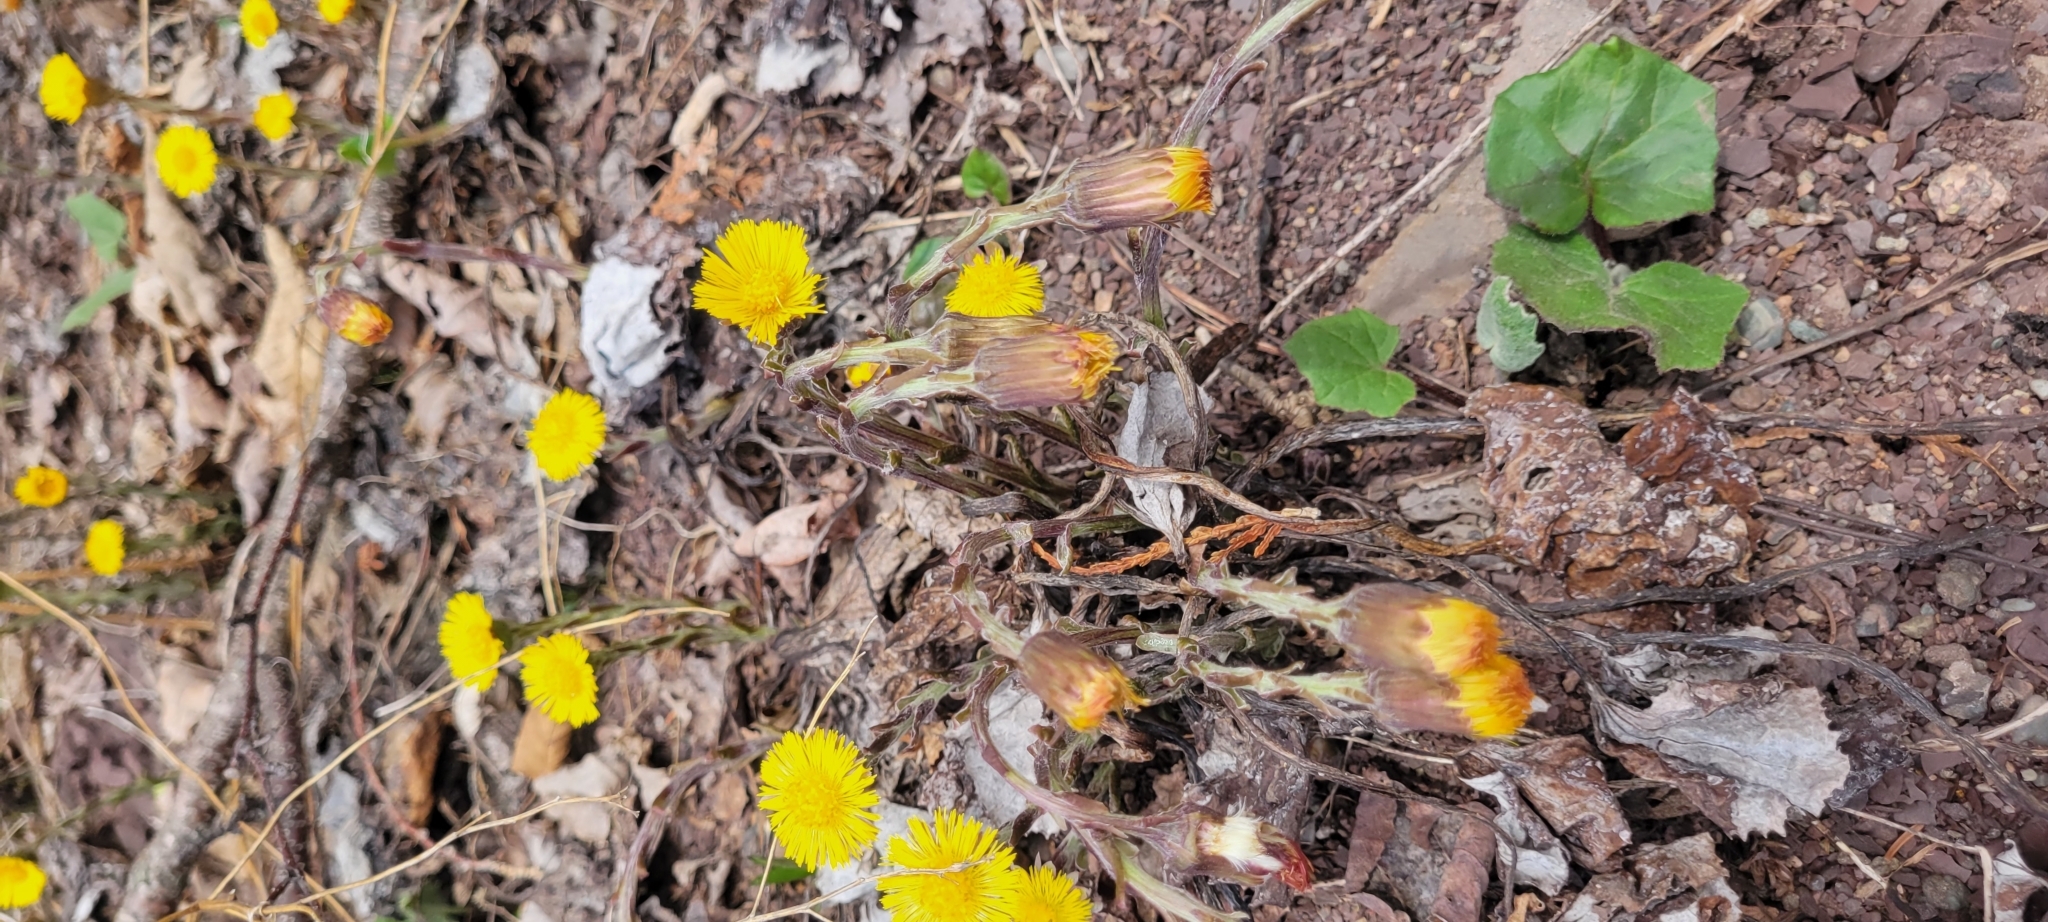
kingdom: Plantae
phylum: Tracheophyta
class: Magnoliopsida
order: Asterales
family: Asteraceae
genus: Tussilago
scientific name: Tussilago farfara
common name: Coltsfoot
